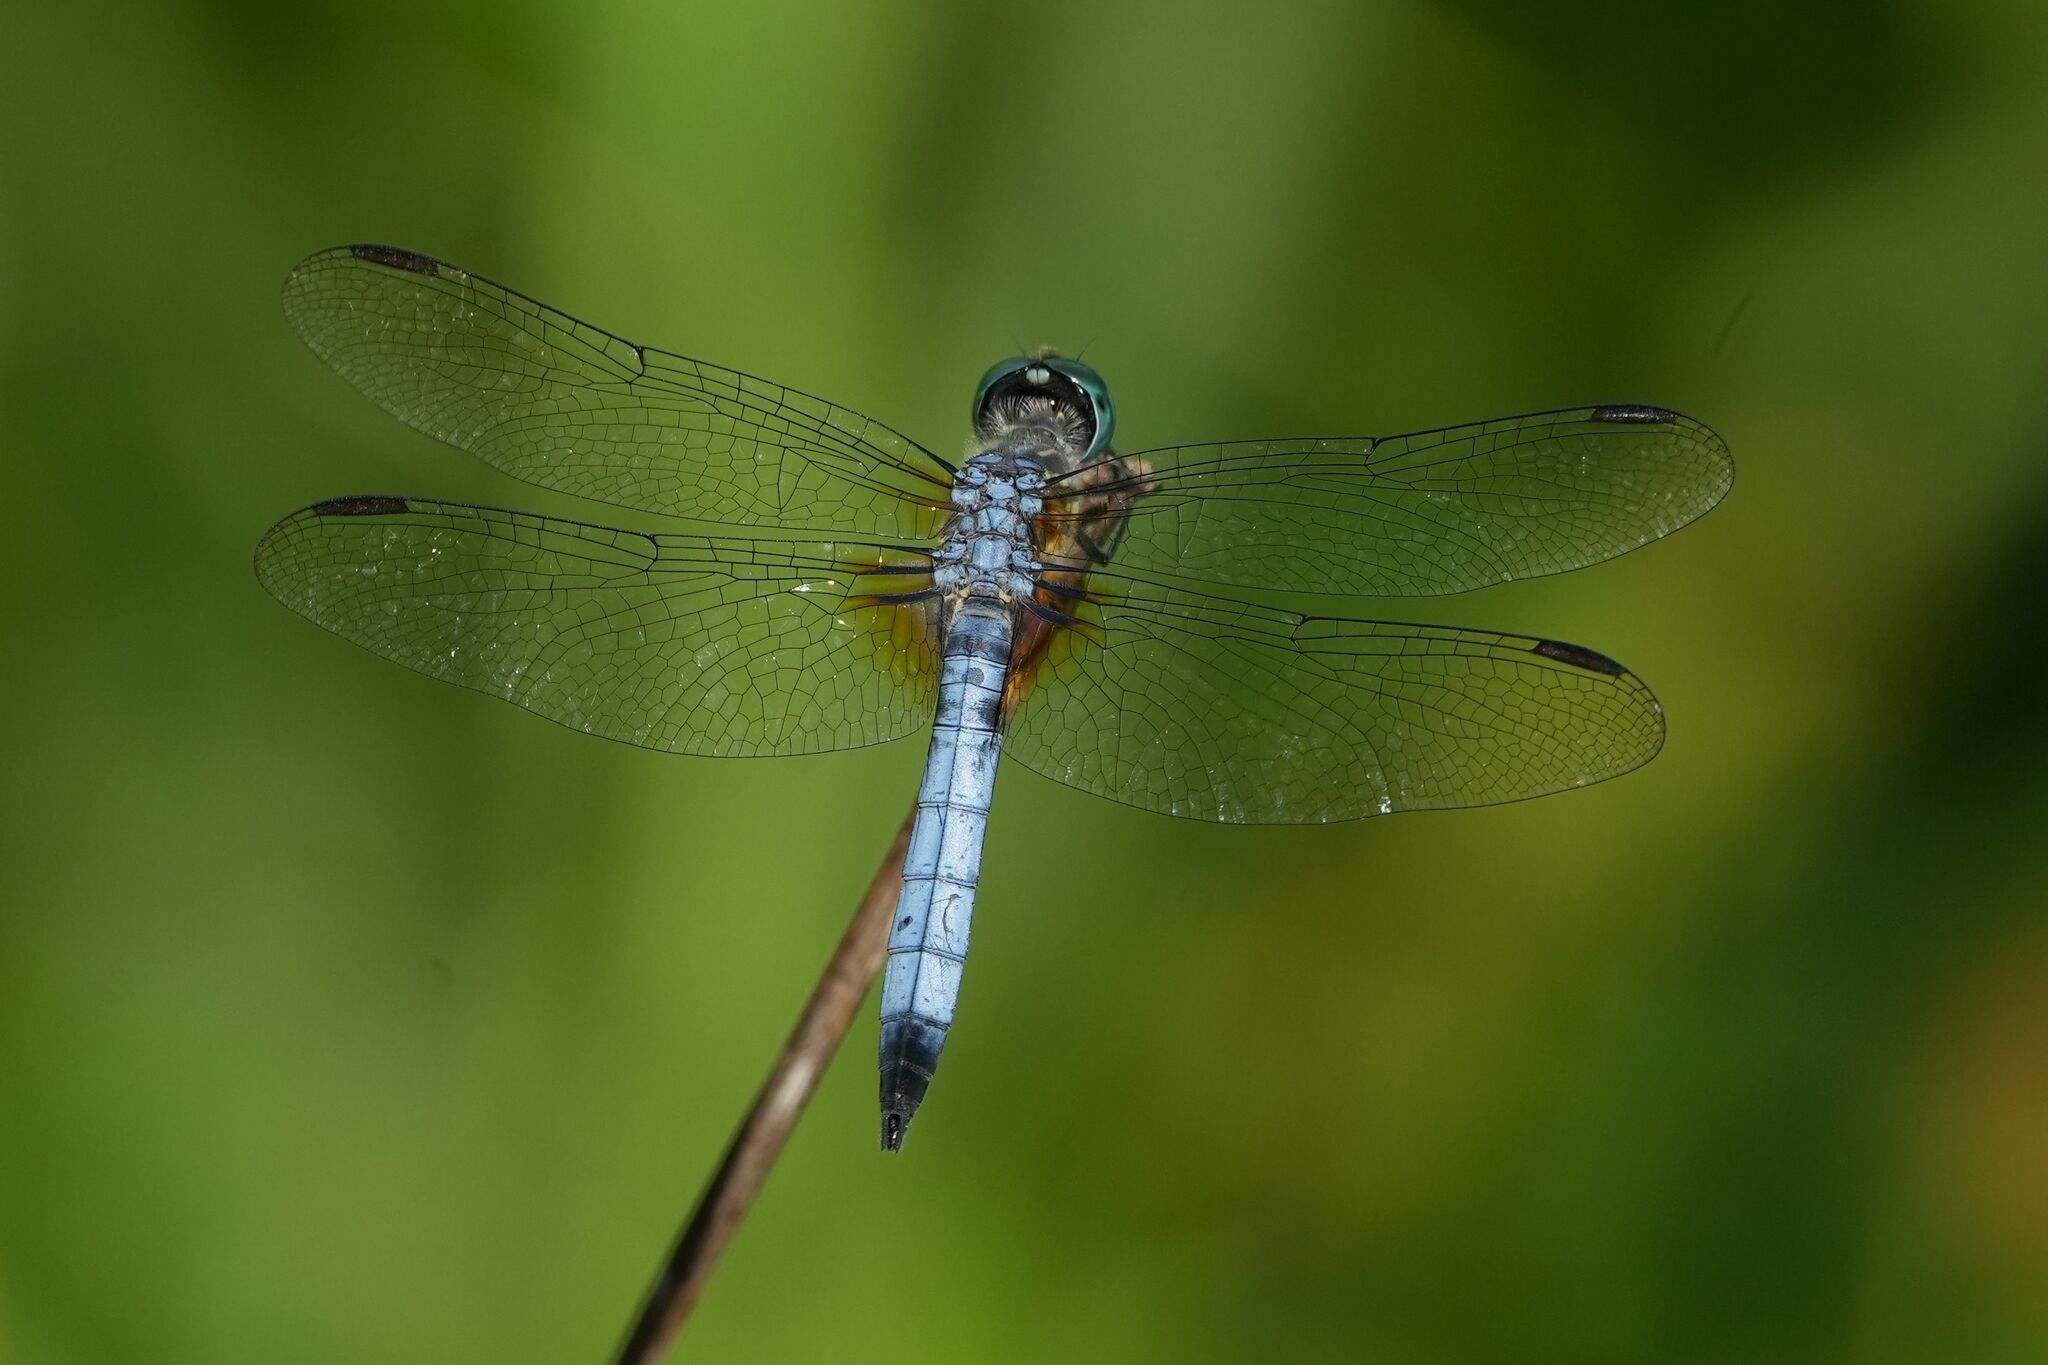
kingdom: Animalia
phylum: Arthropoda
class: Insecta
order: Odonata
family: Libellulidae
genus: Pachydiplax
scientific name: Pachydiplax longipennis
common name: Blue dasher
